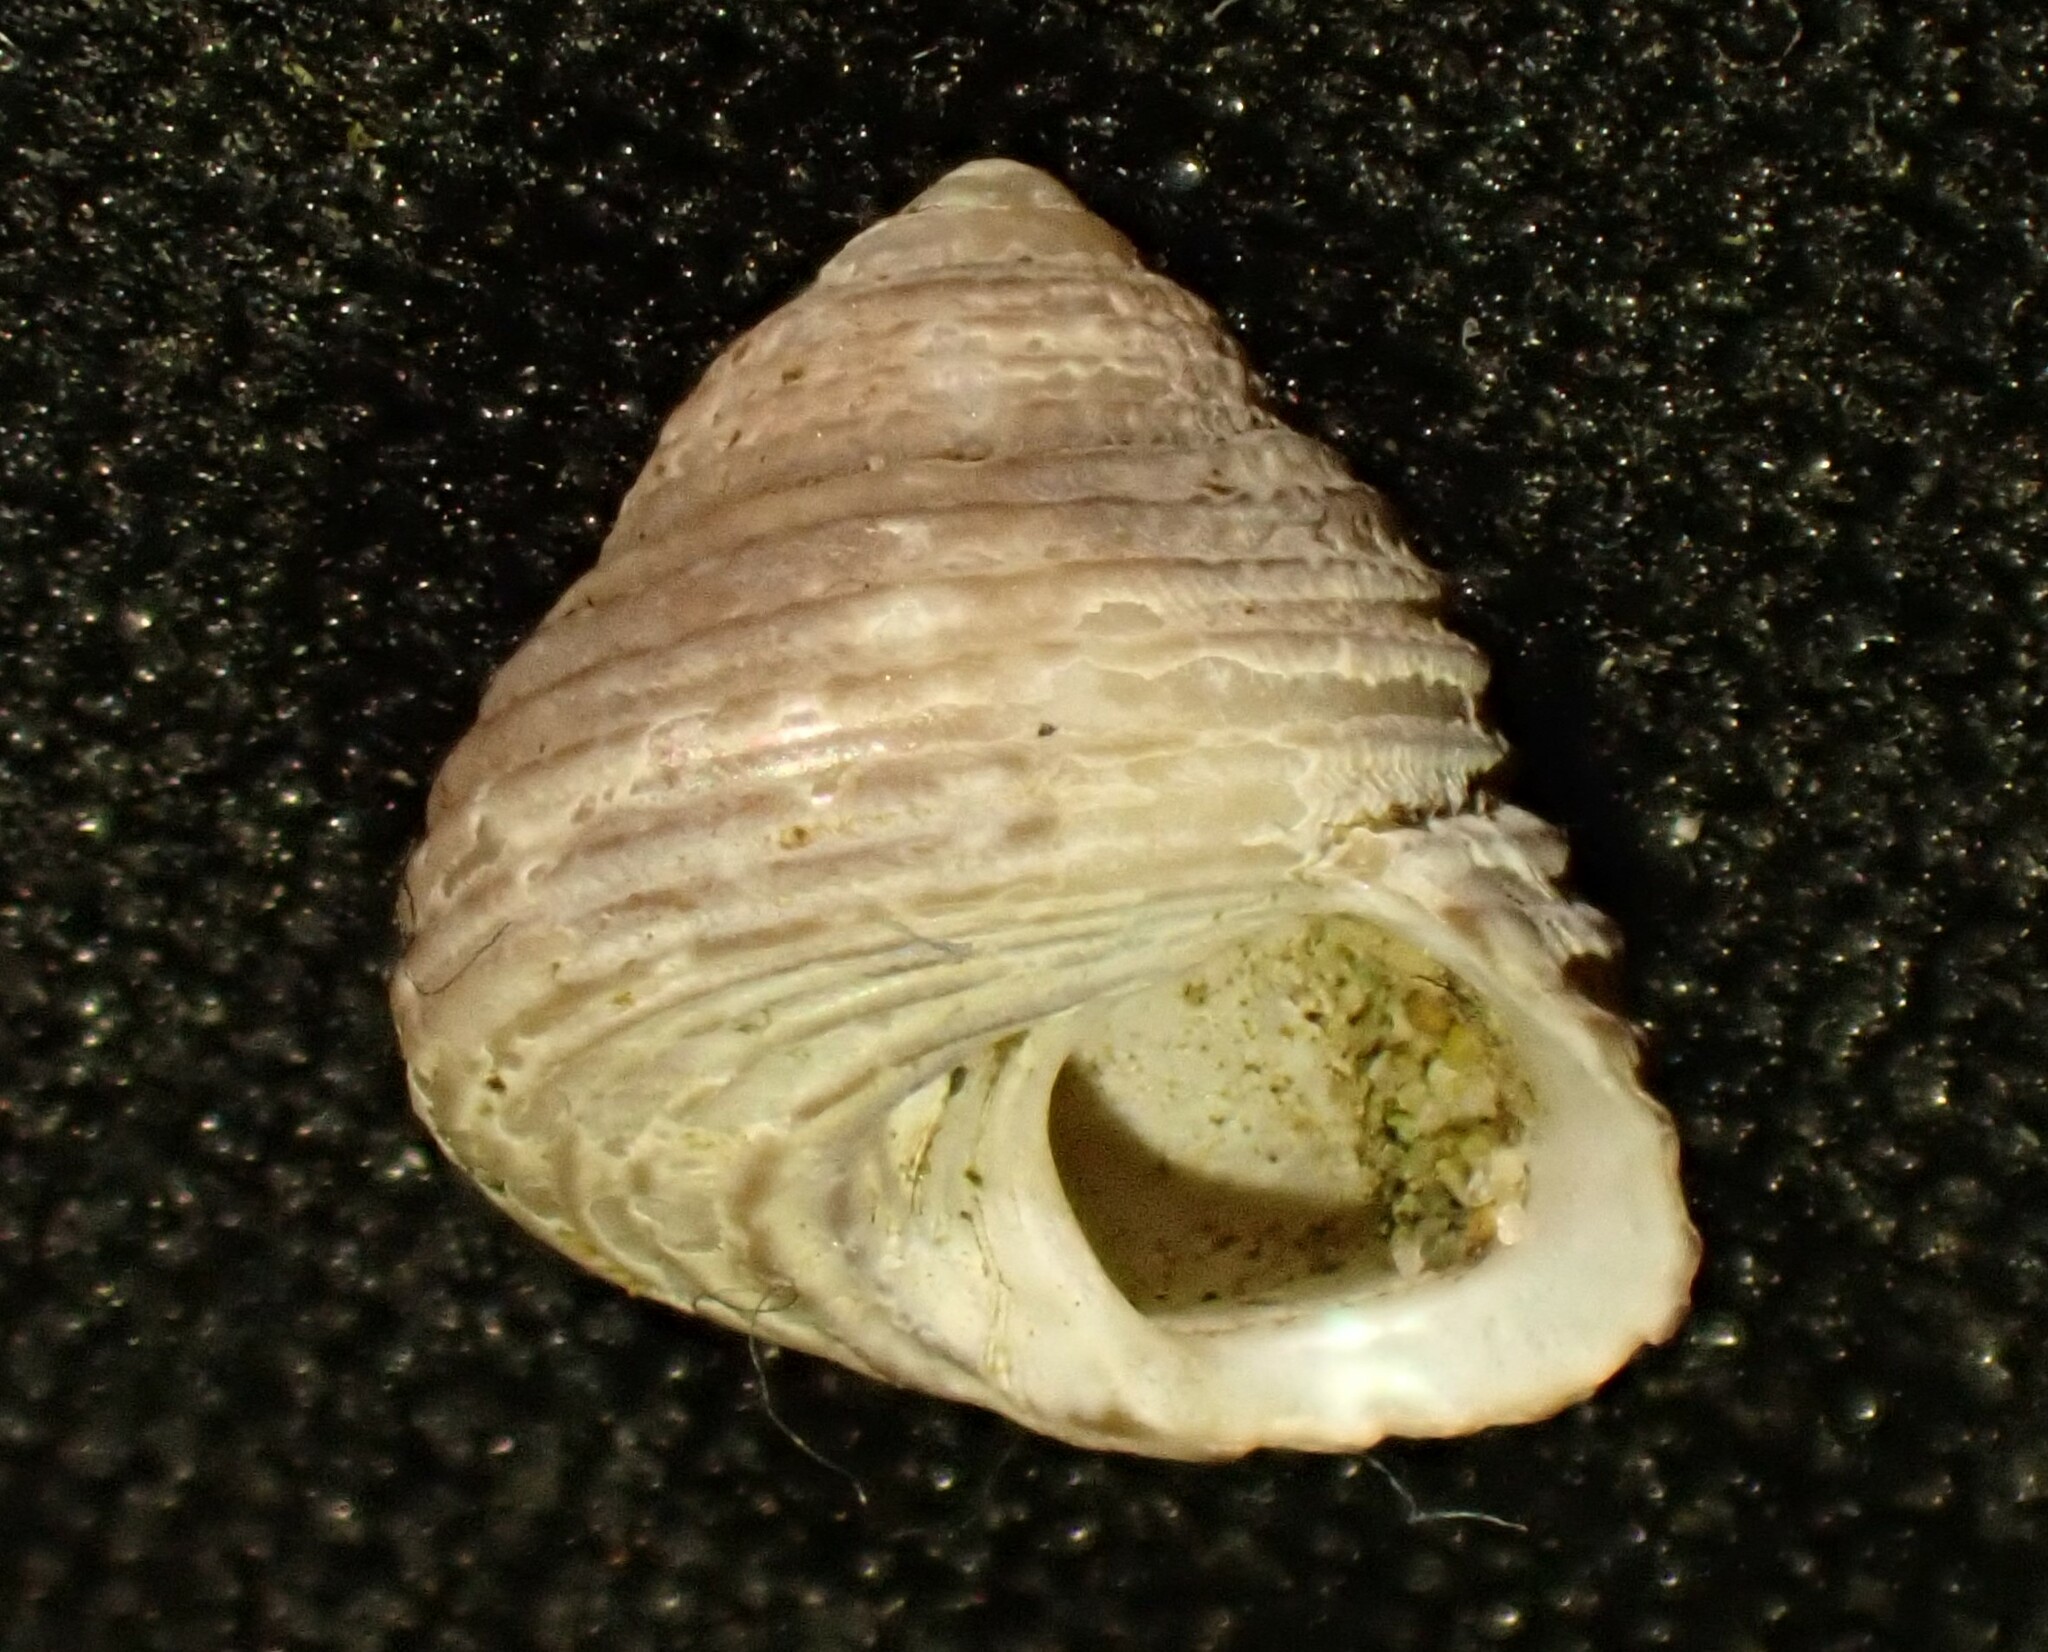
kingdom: Animalia
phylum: Mollusca
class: Gastropoda
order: Trochida
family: Trochidae
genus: Micrelenchus
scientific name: Micrelenchus tenebrosus
